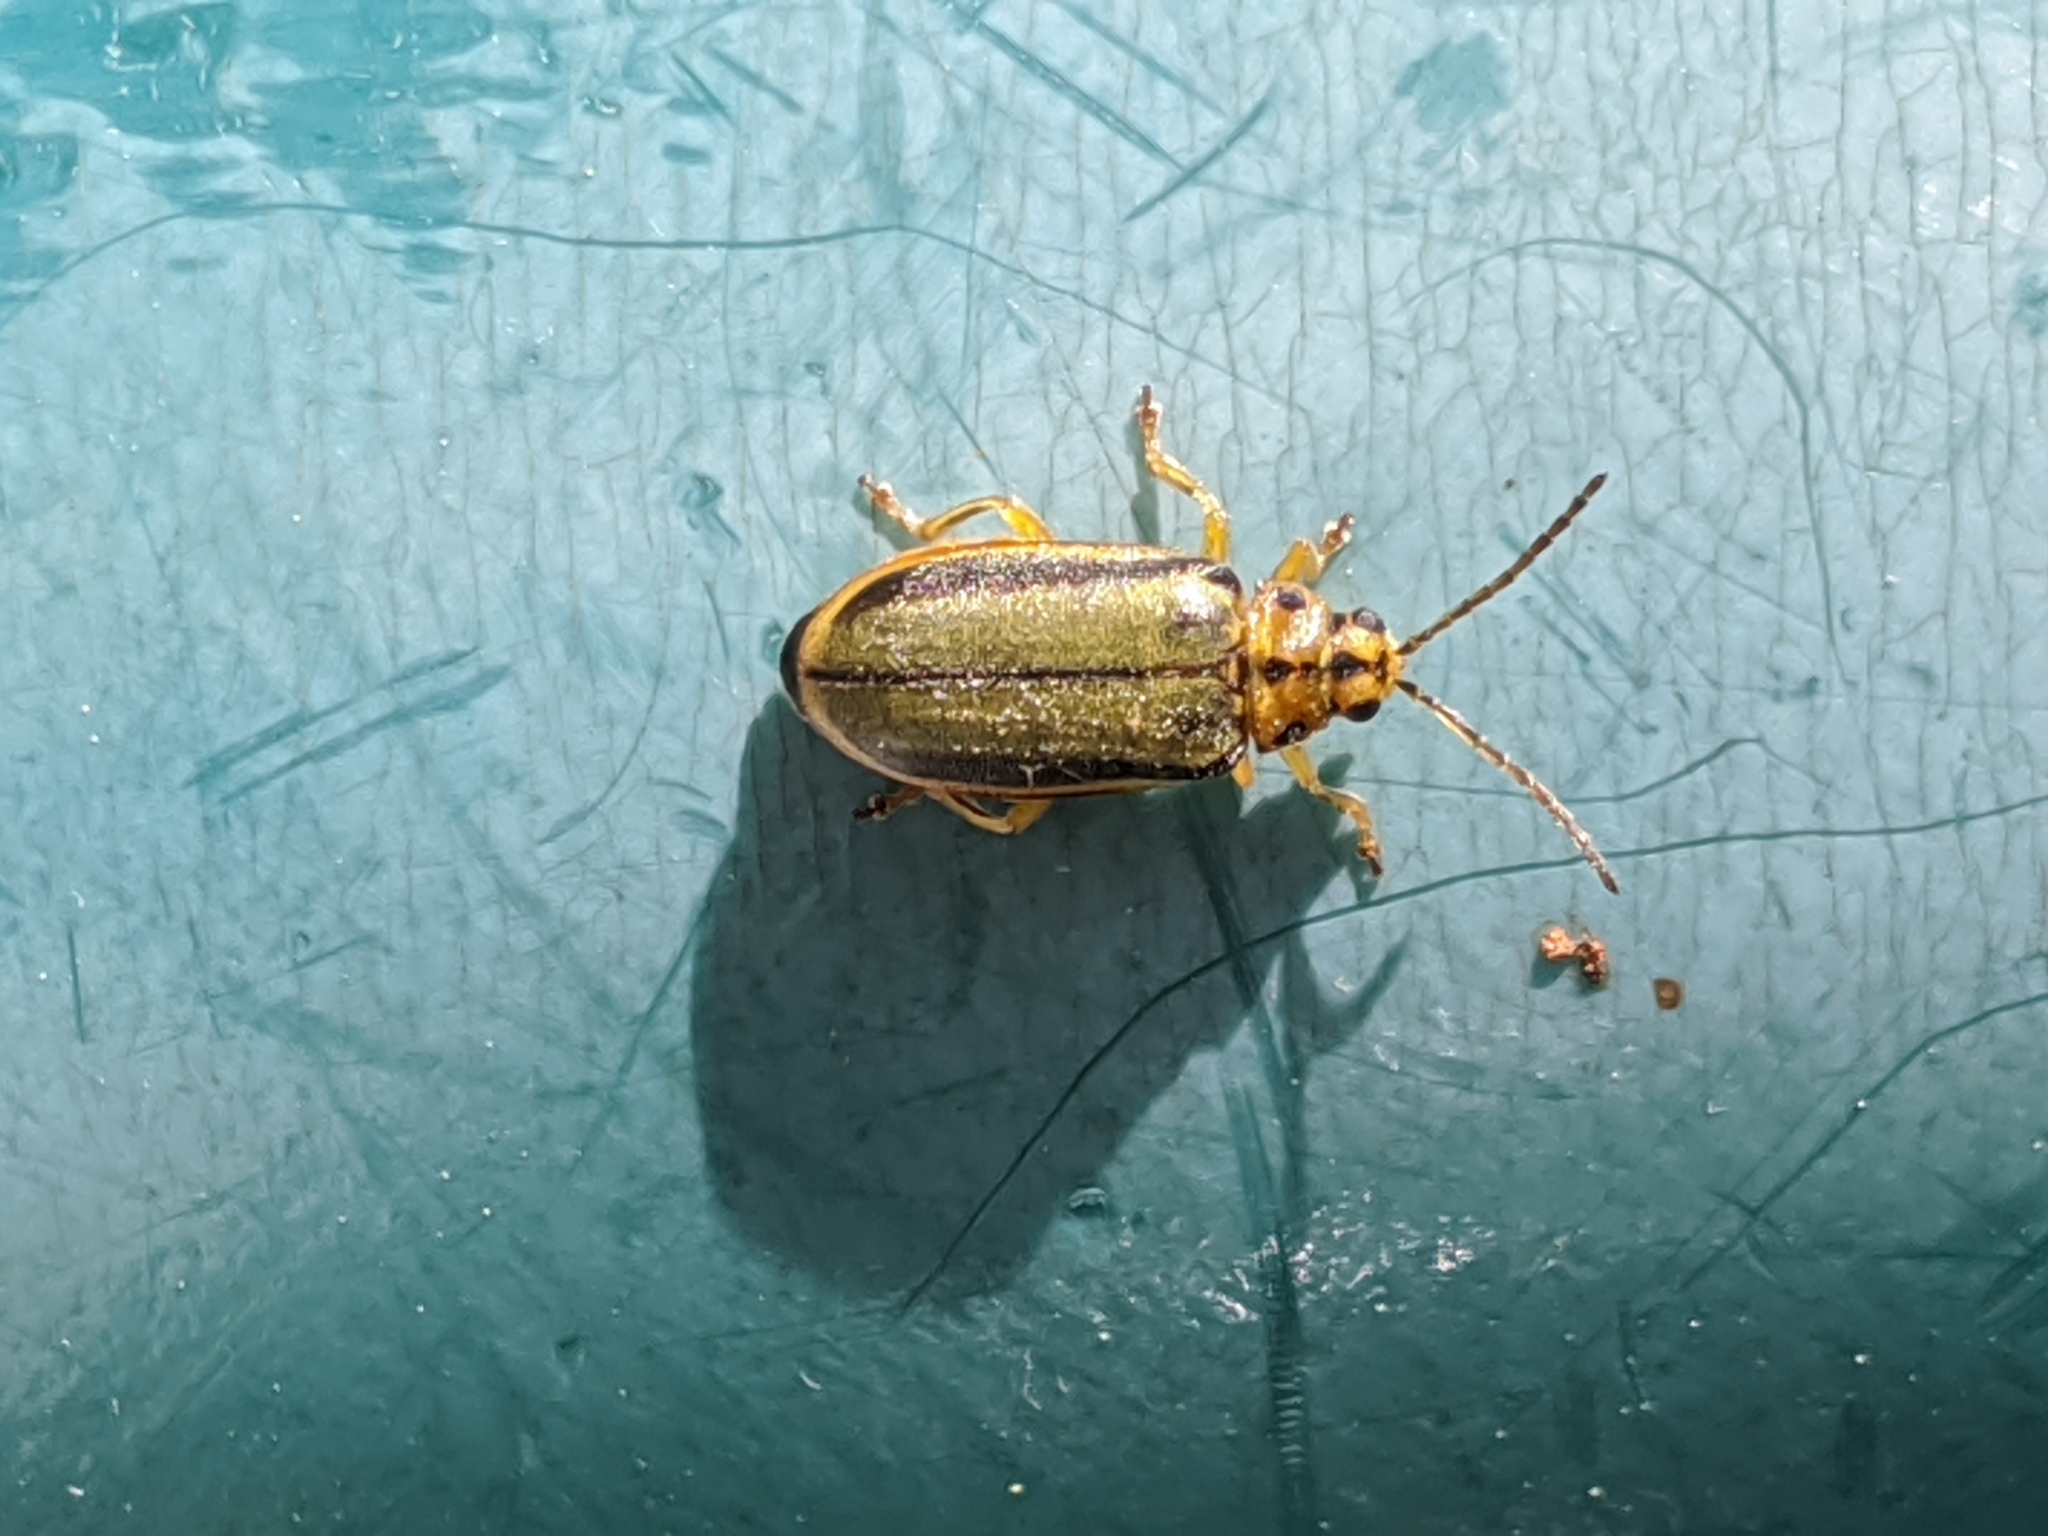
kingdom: Animalia
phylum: Arthropoda
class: Insecta
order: Coleoptera
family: Chrysomelidae
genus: Xanthogaleruca
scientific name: Xanthogaleruca luteola
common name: Elm leaf beetle
